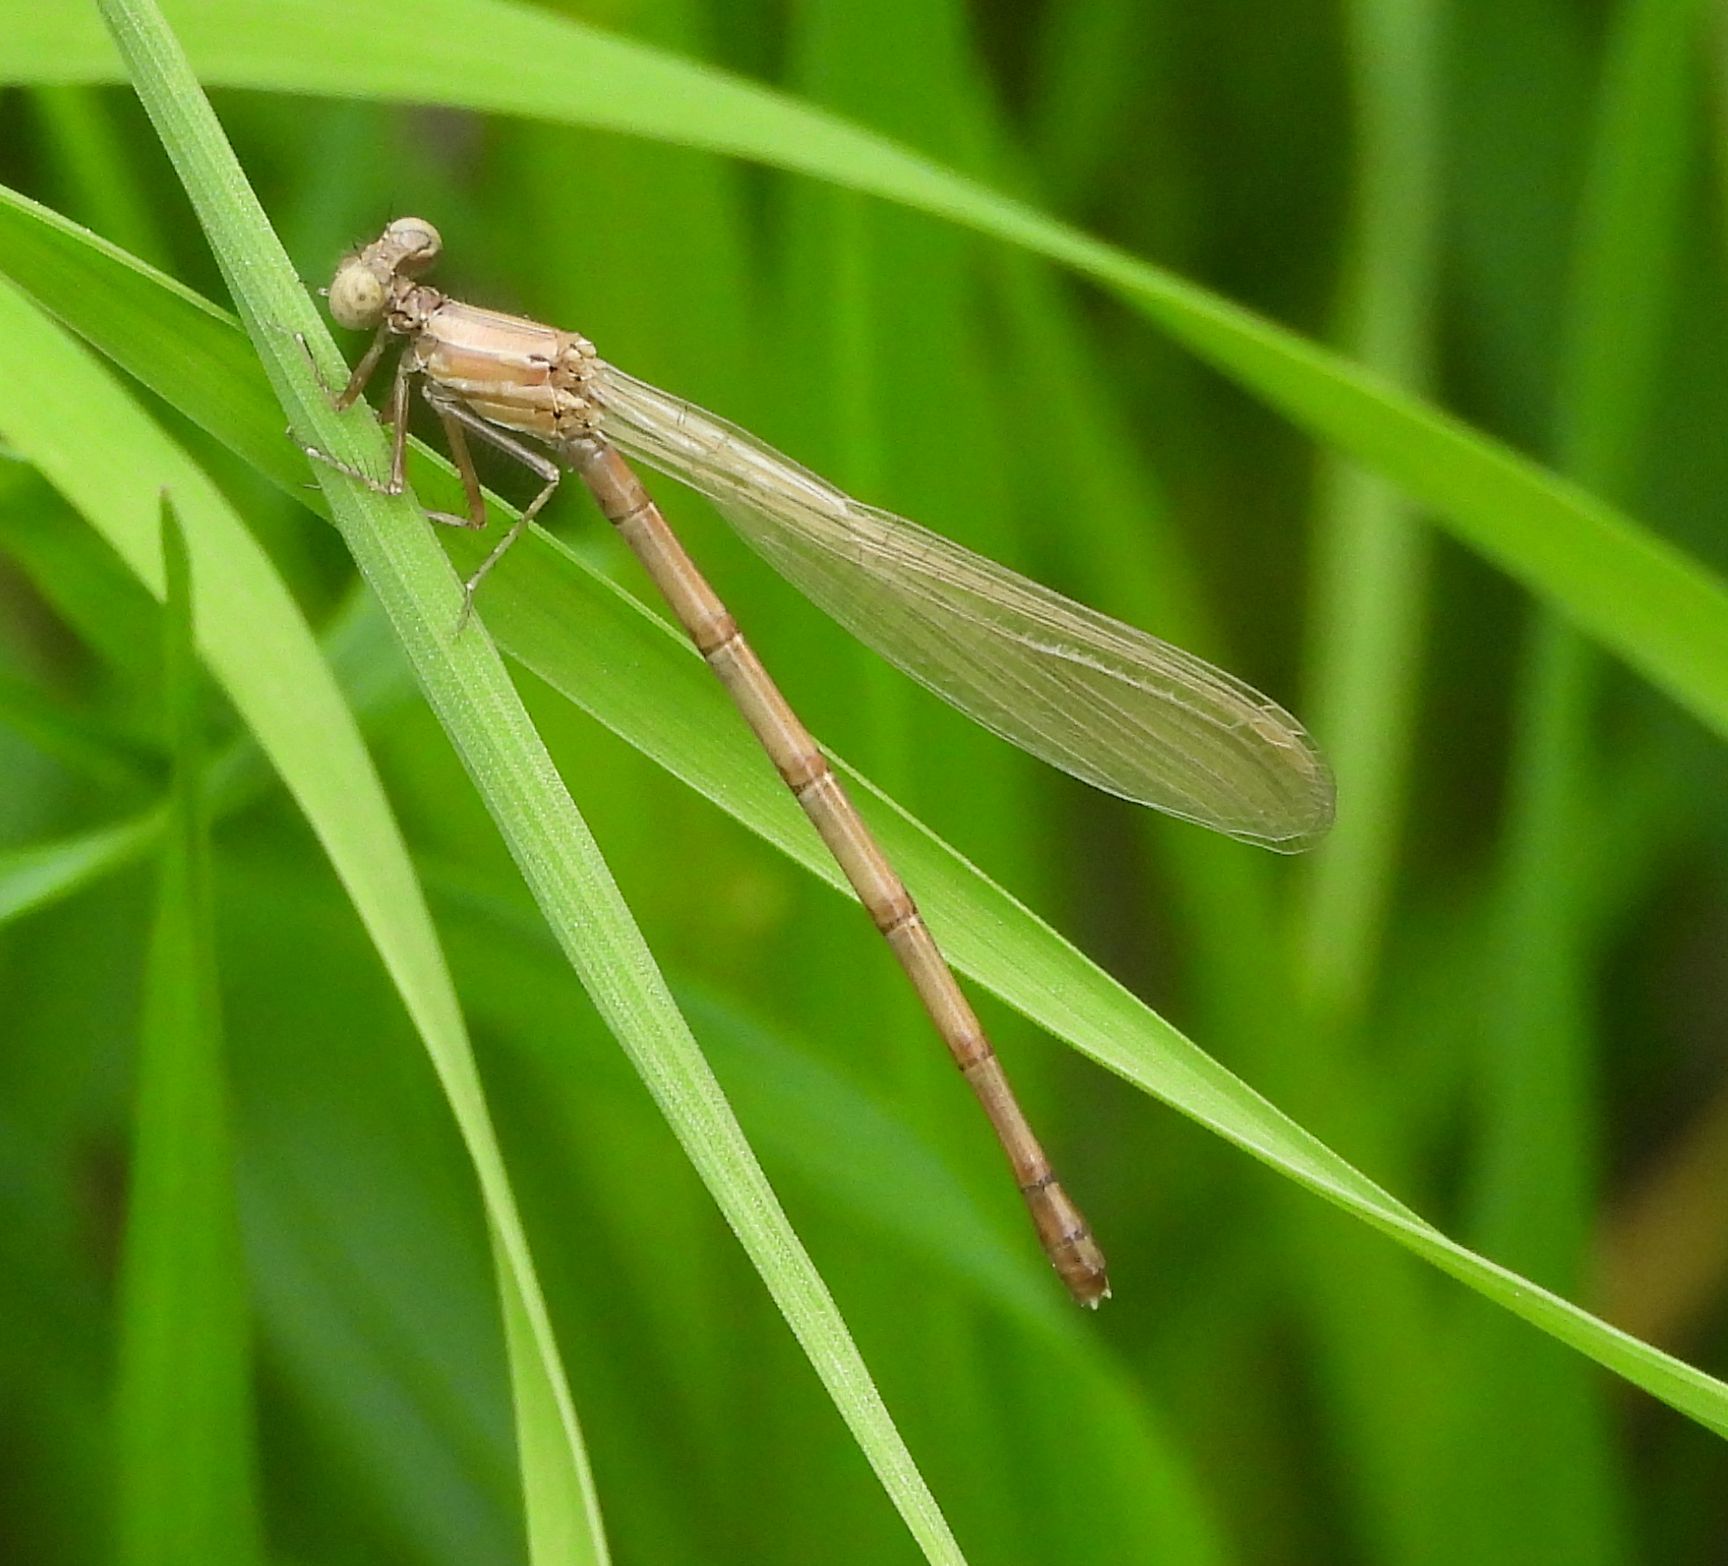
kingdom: Animalia
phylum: Arthropoda
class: Insecta
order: Odonata
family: Coenagrionidae
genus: Argia
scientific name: Argia fumipennis
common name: Variable dancer
